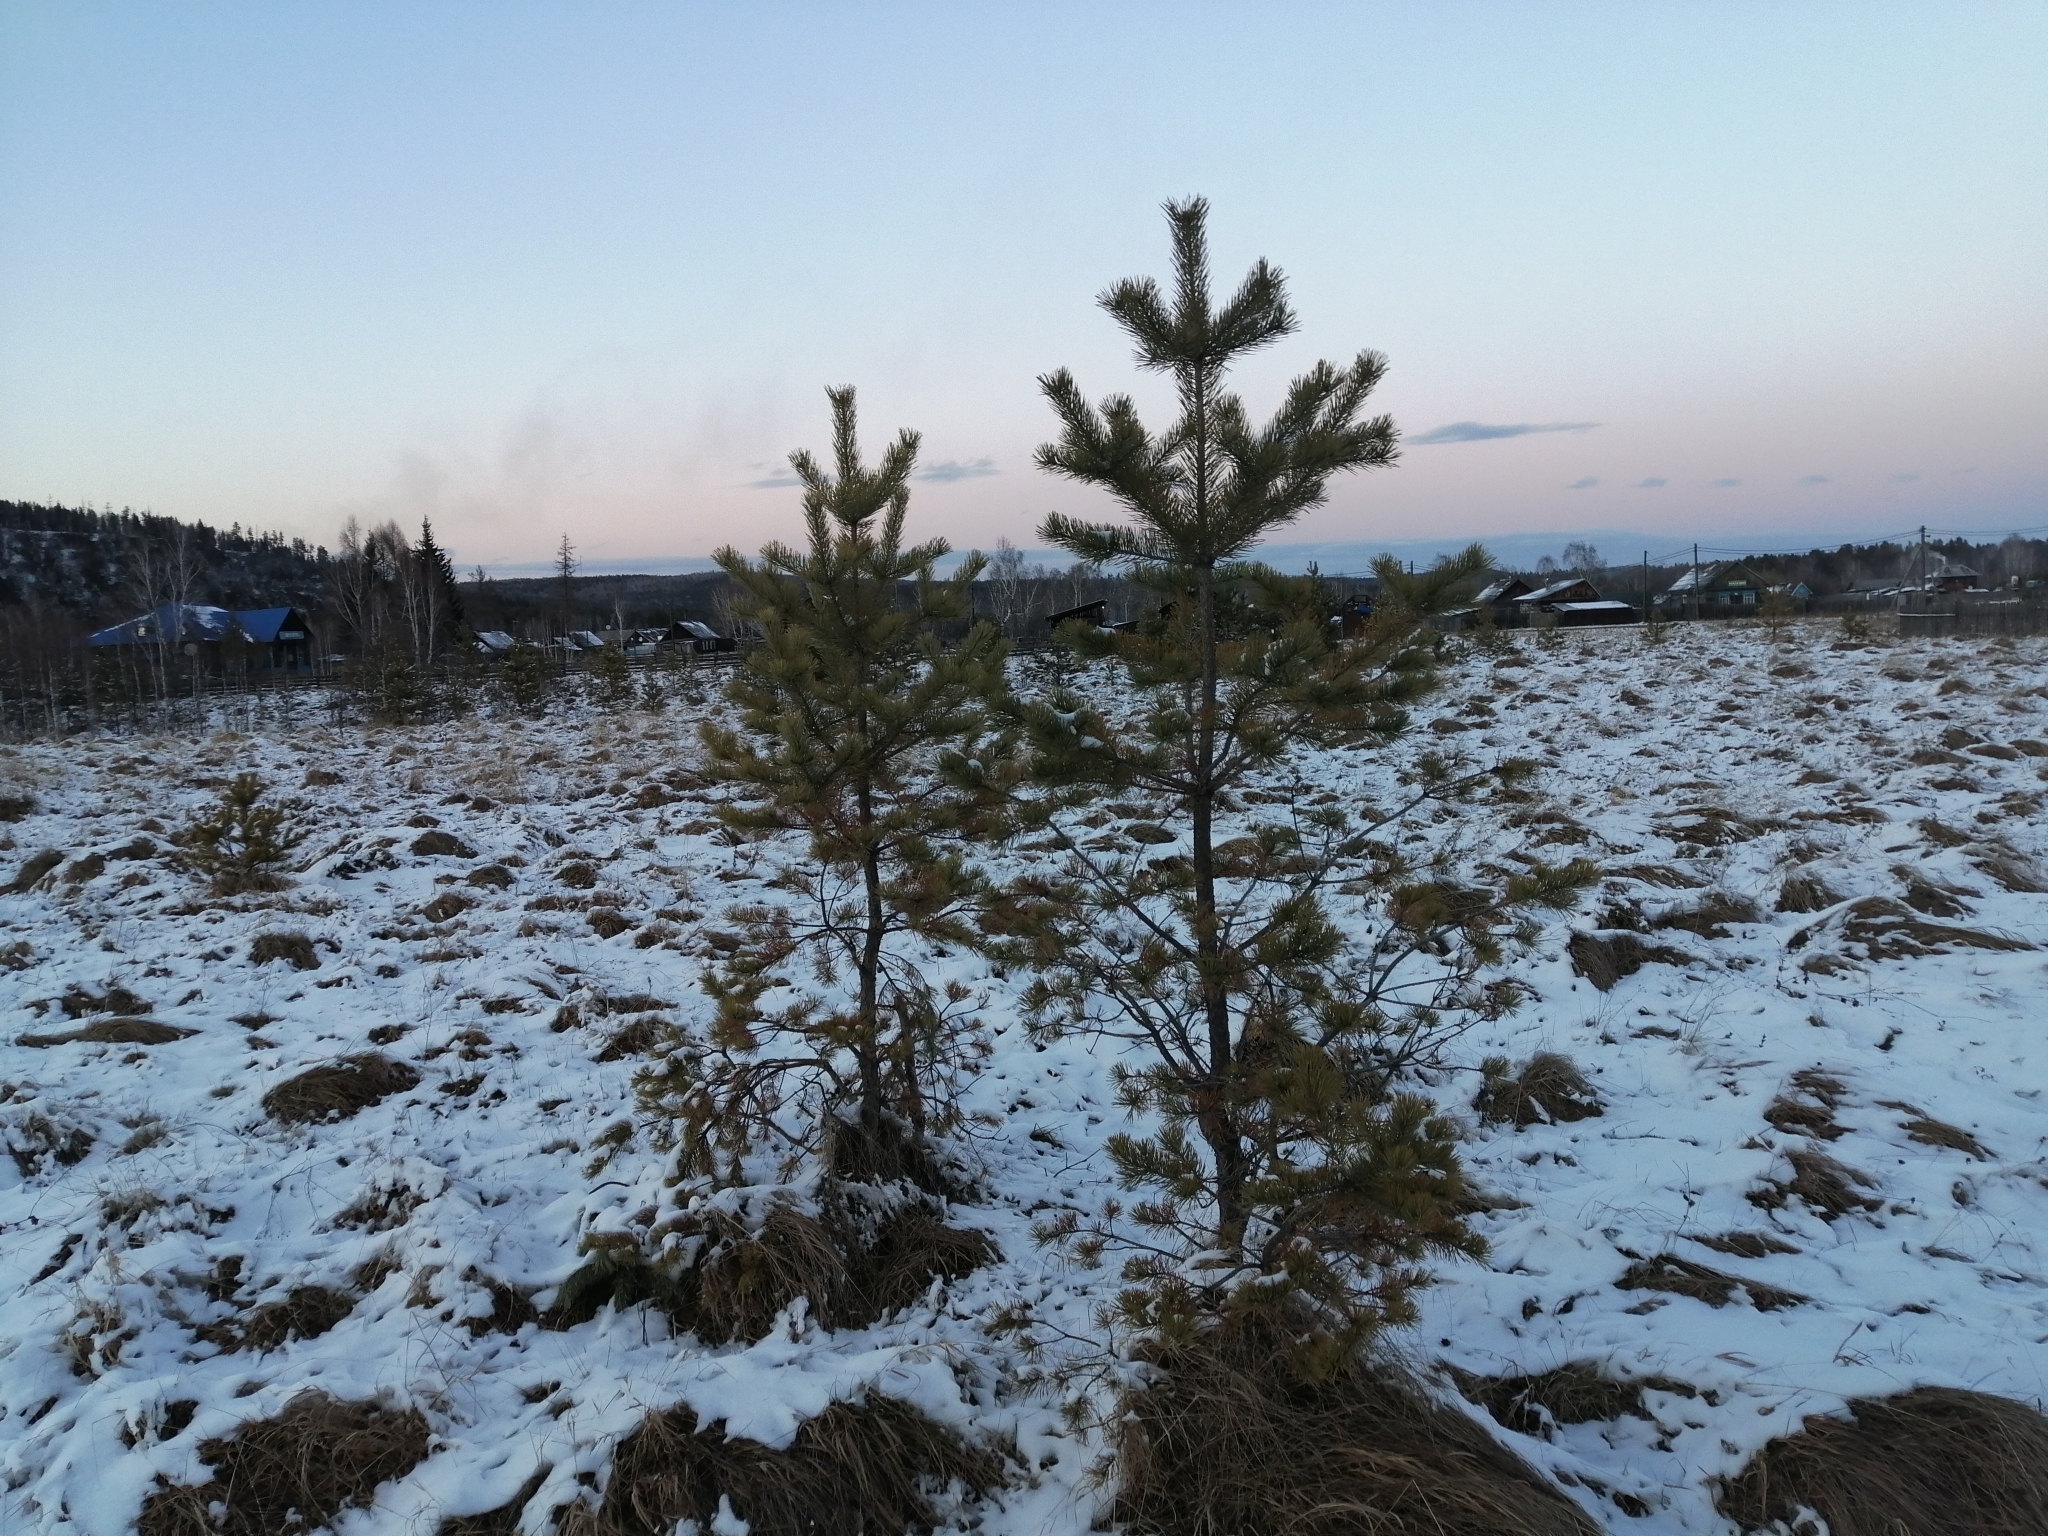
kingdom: Plantae
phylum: Tracheophyta
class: Pinopsida
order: Pinales
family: Pinaceae
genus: Pinus
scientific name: Pinus sylvestris
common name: Scots pine
